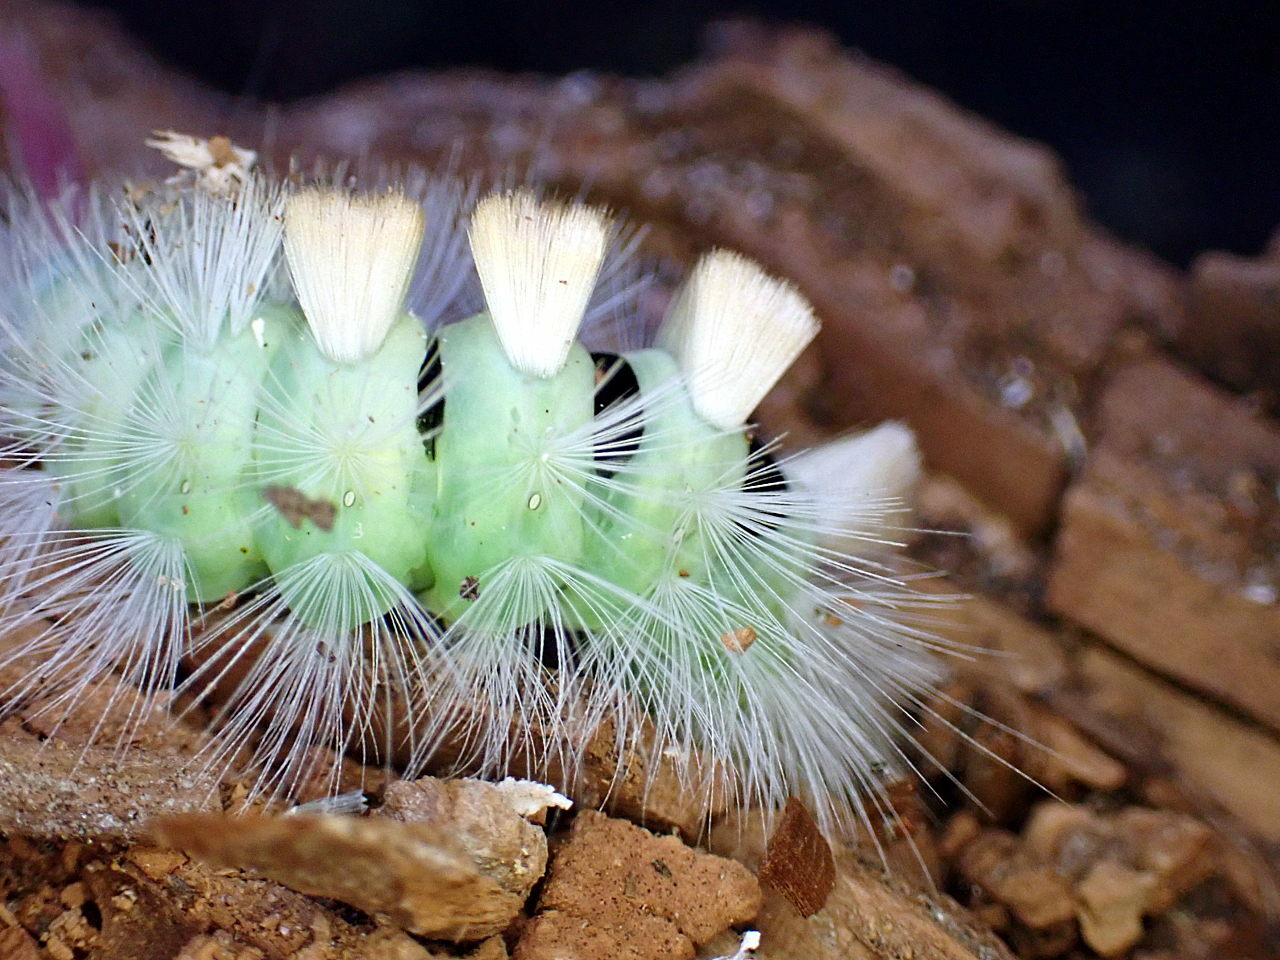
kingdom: Animalia
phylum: Arthropoda
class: Insecta
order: Lepidoptera
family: Erebidae
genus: Calliteara
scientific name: Calliteara pudibunda
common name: Pale tussock
